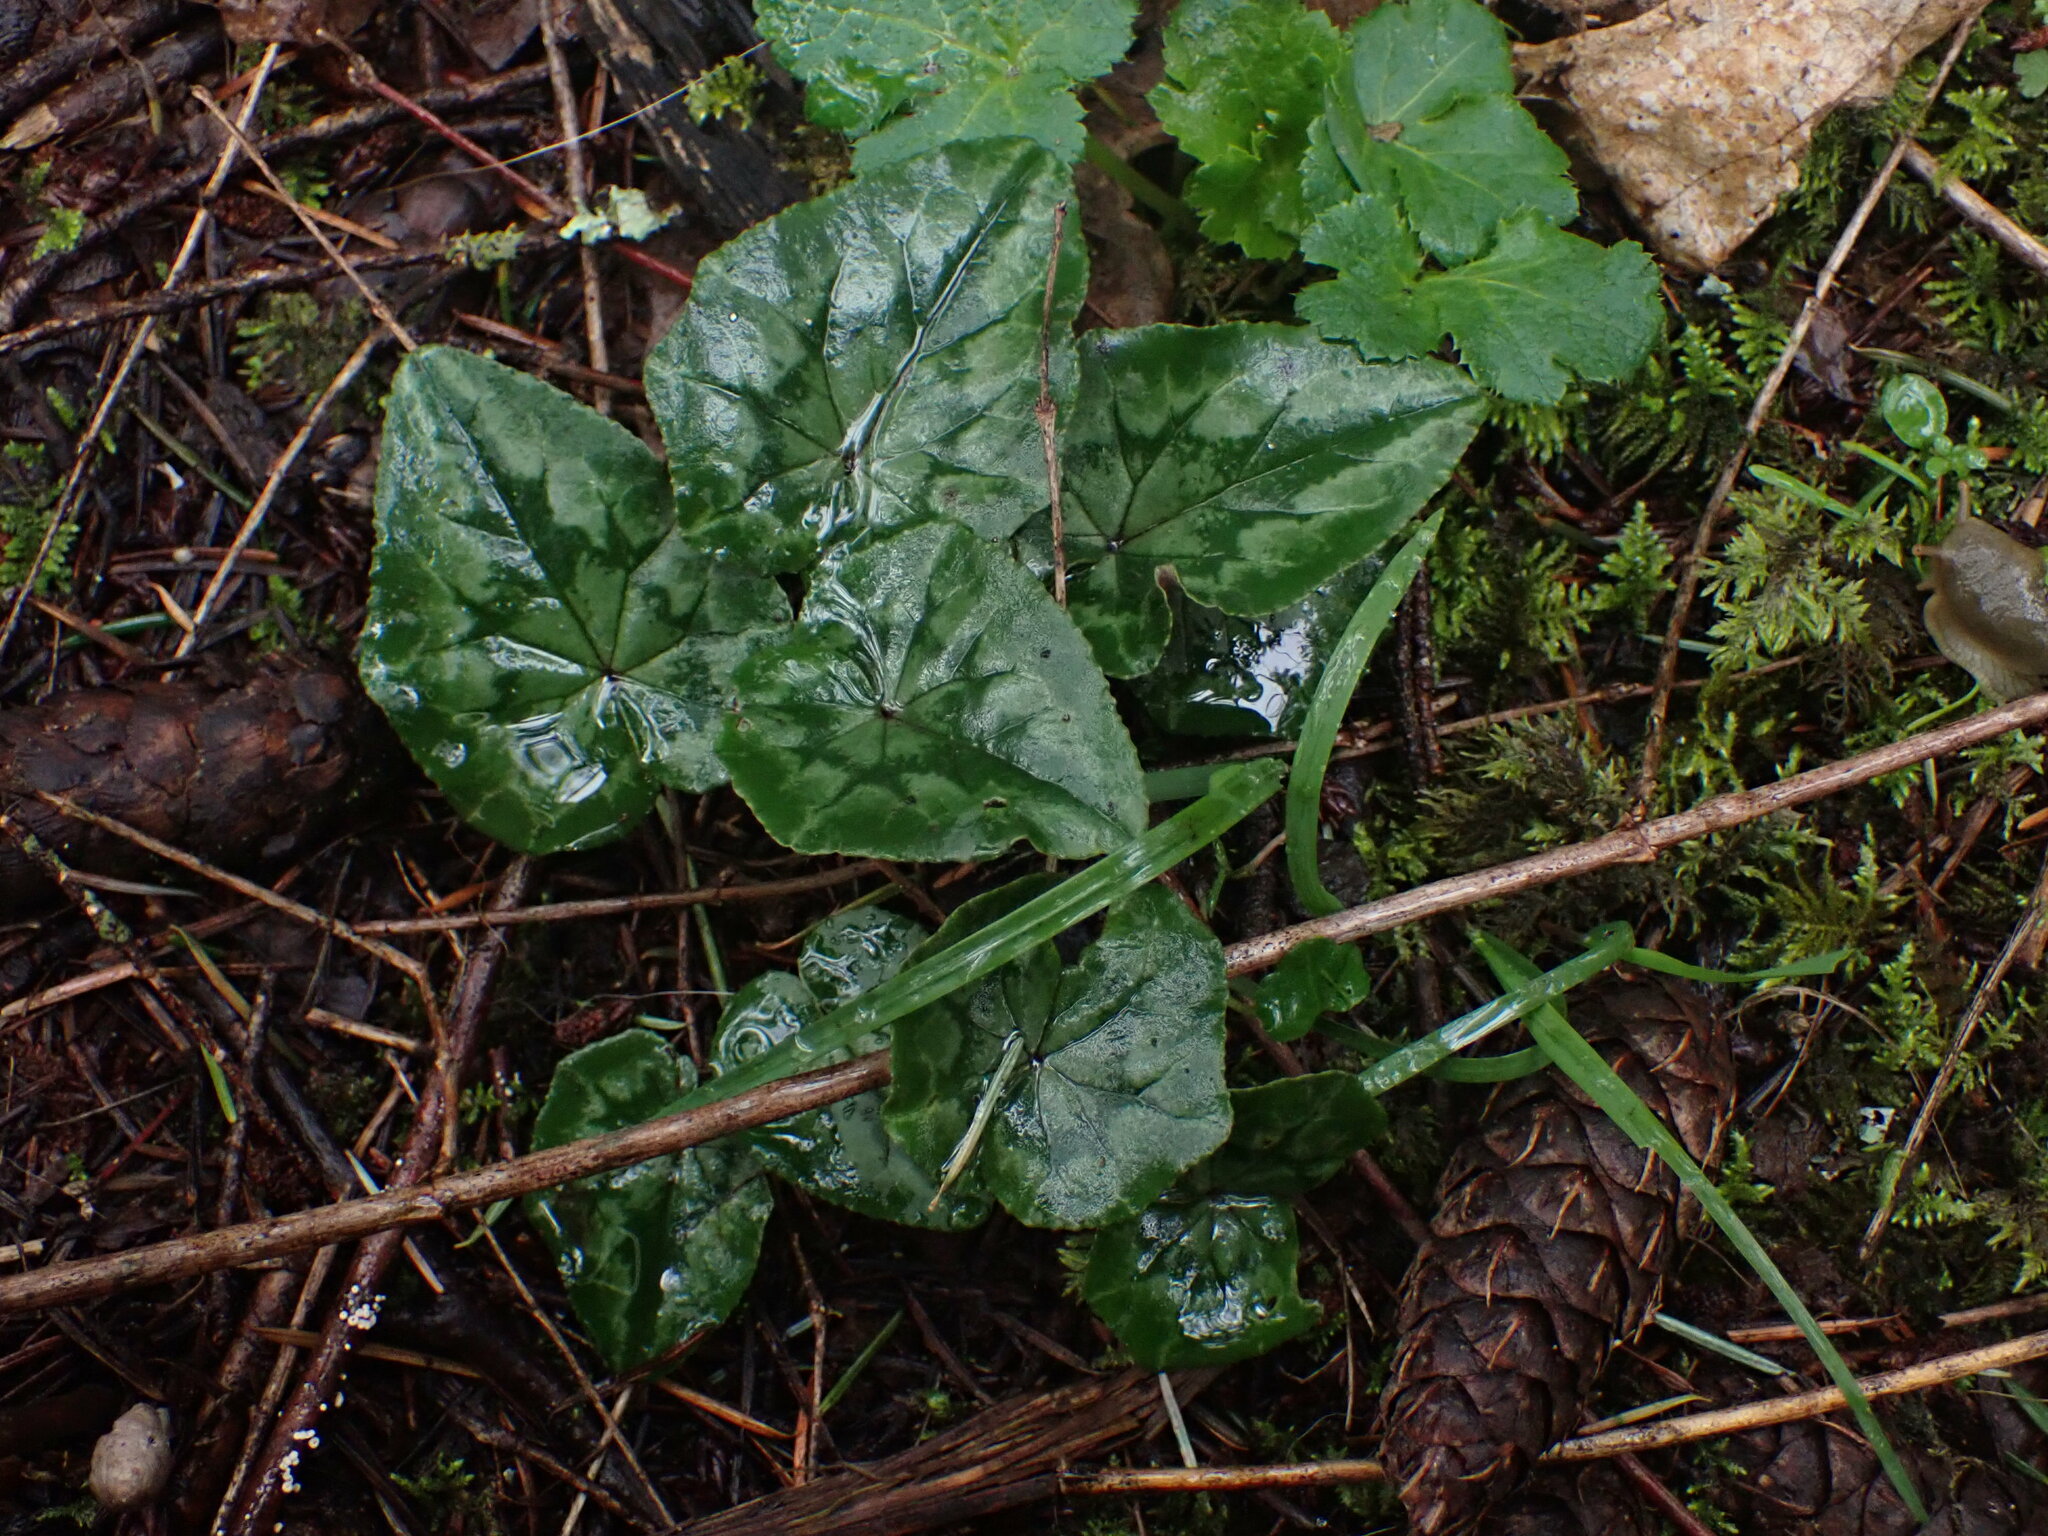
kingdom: Plantae
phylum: Tracheophyta
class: Magnoliopsida
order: Ericales
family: Primulaceae
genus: Cyclamen
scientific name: Cyclamen hederifolium
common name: Sowbread
